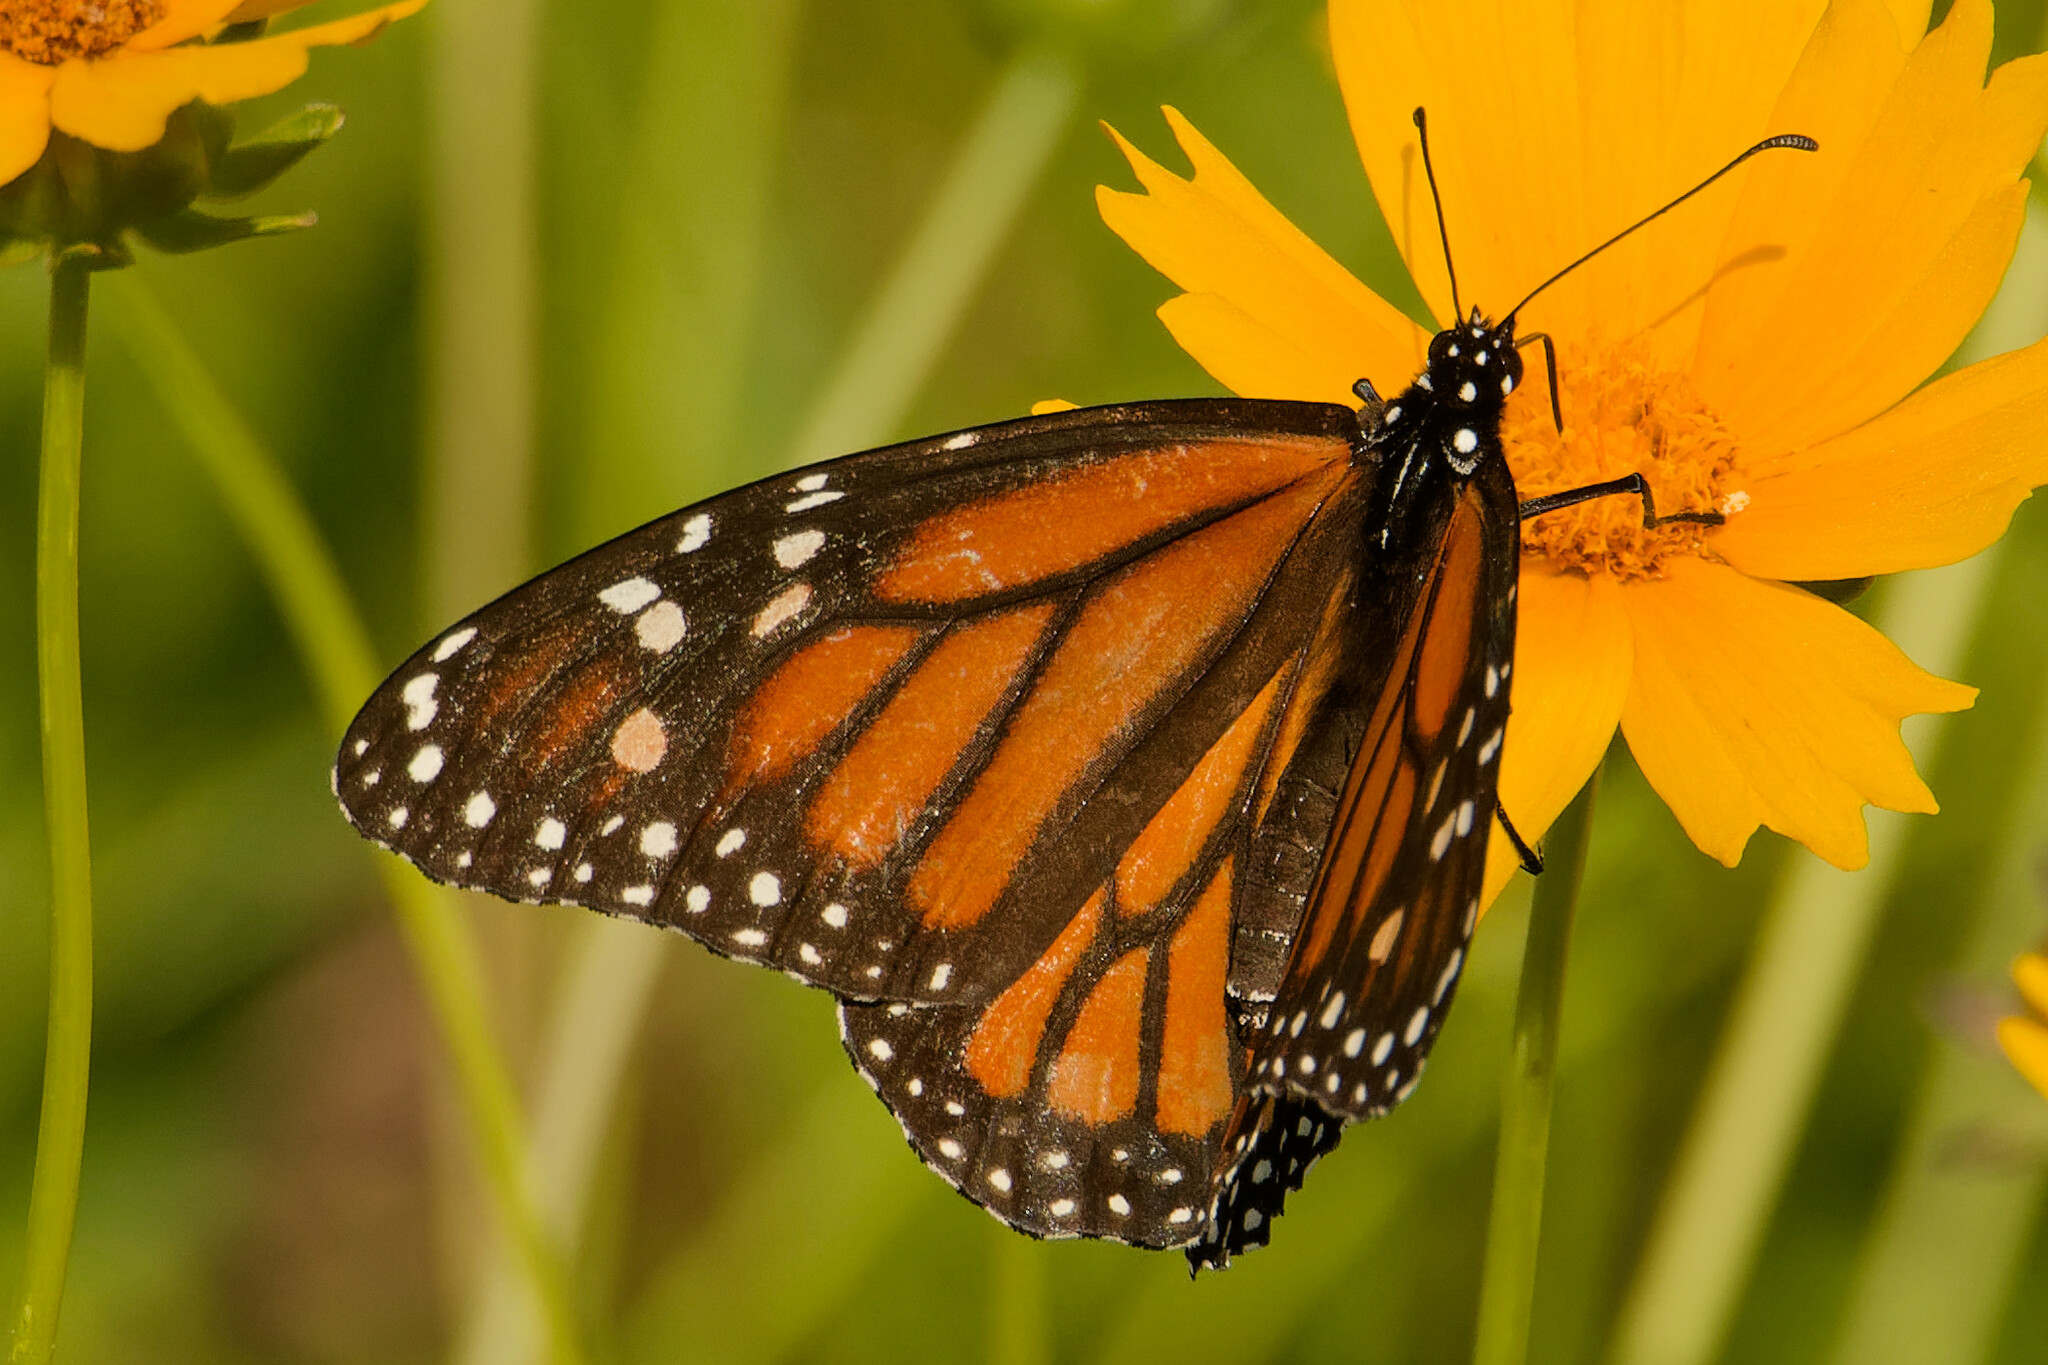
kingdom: Animalia
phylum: Arthropoda
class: Insecta
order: Lepidoptera
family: Nymphalidae
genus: Danaus
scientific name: Danaus plexippus
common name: Monarch
